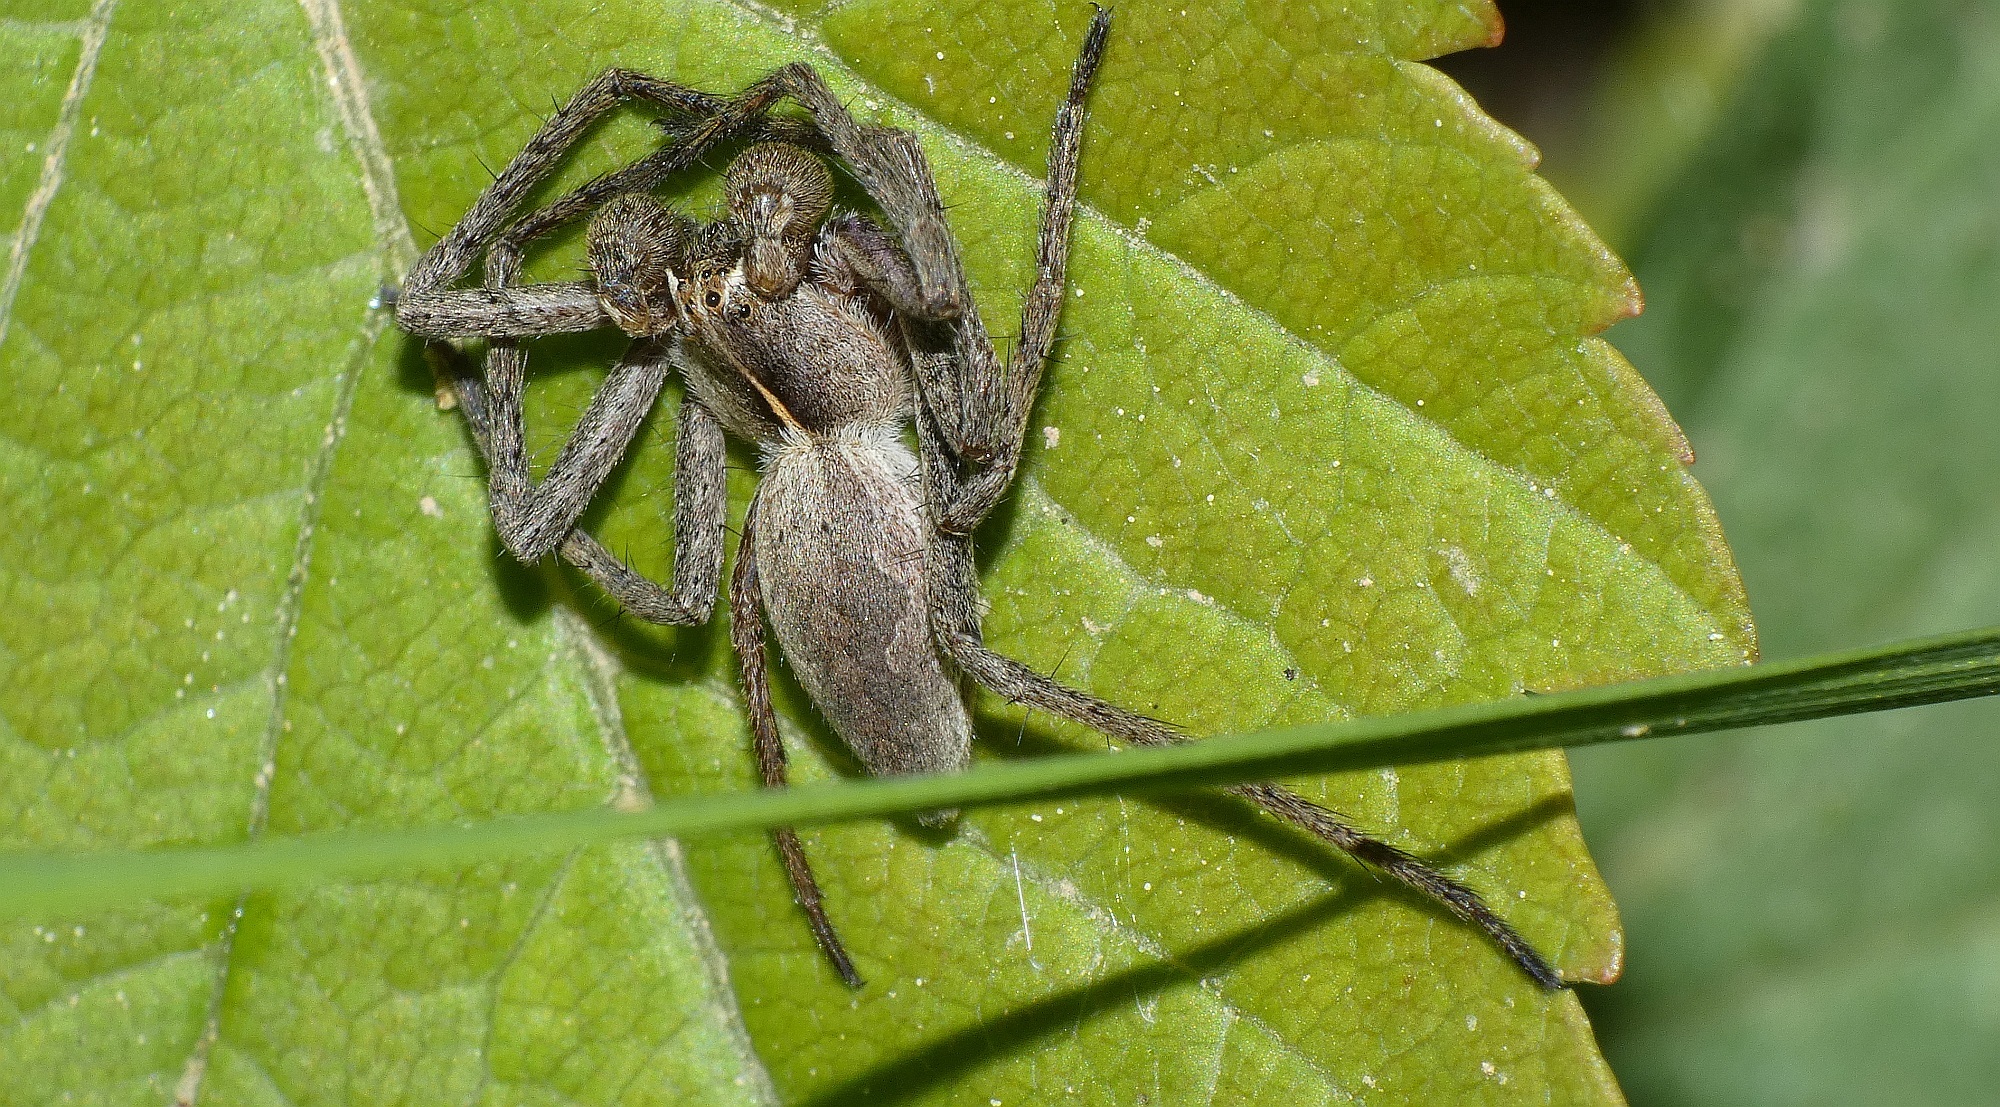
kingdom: Animalia
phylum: Arthropoda
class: Arachnida
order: Araneae
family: Pisauridae
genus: Pisaura
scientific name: Pisaura mirabilis
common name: Tent spider
